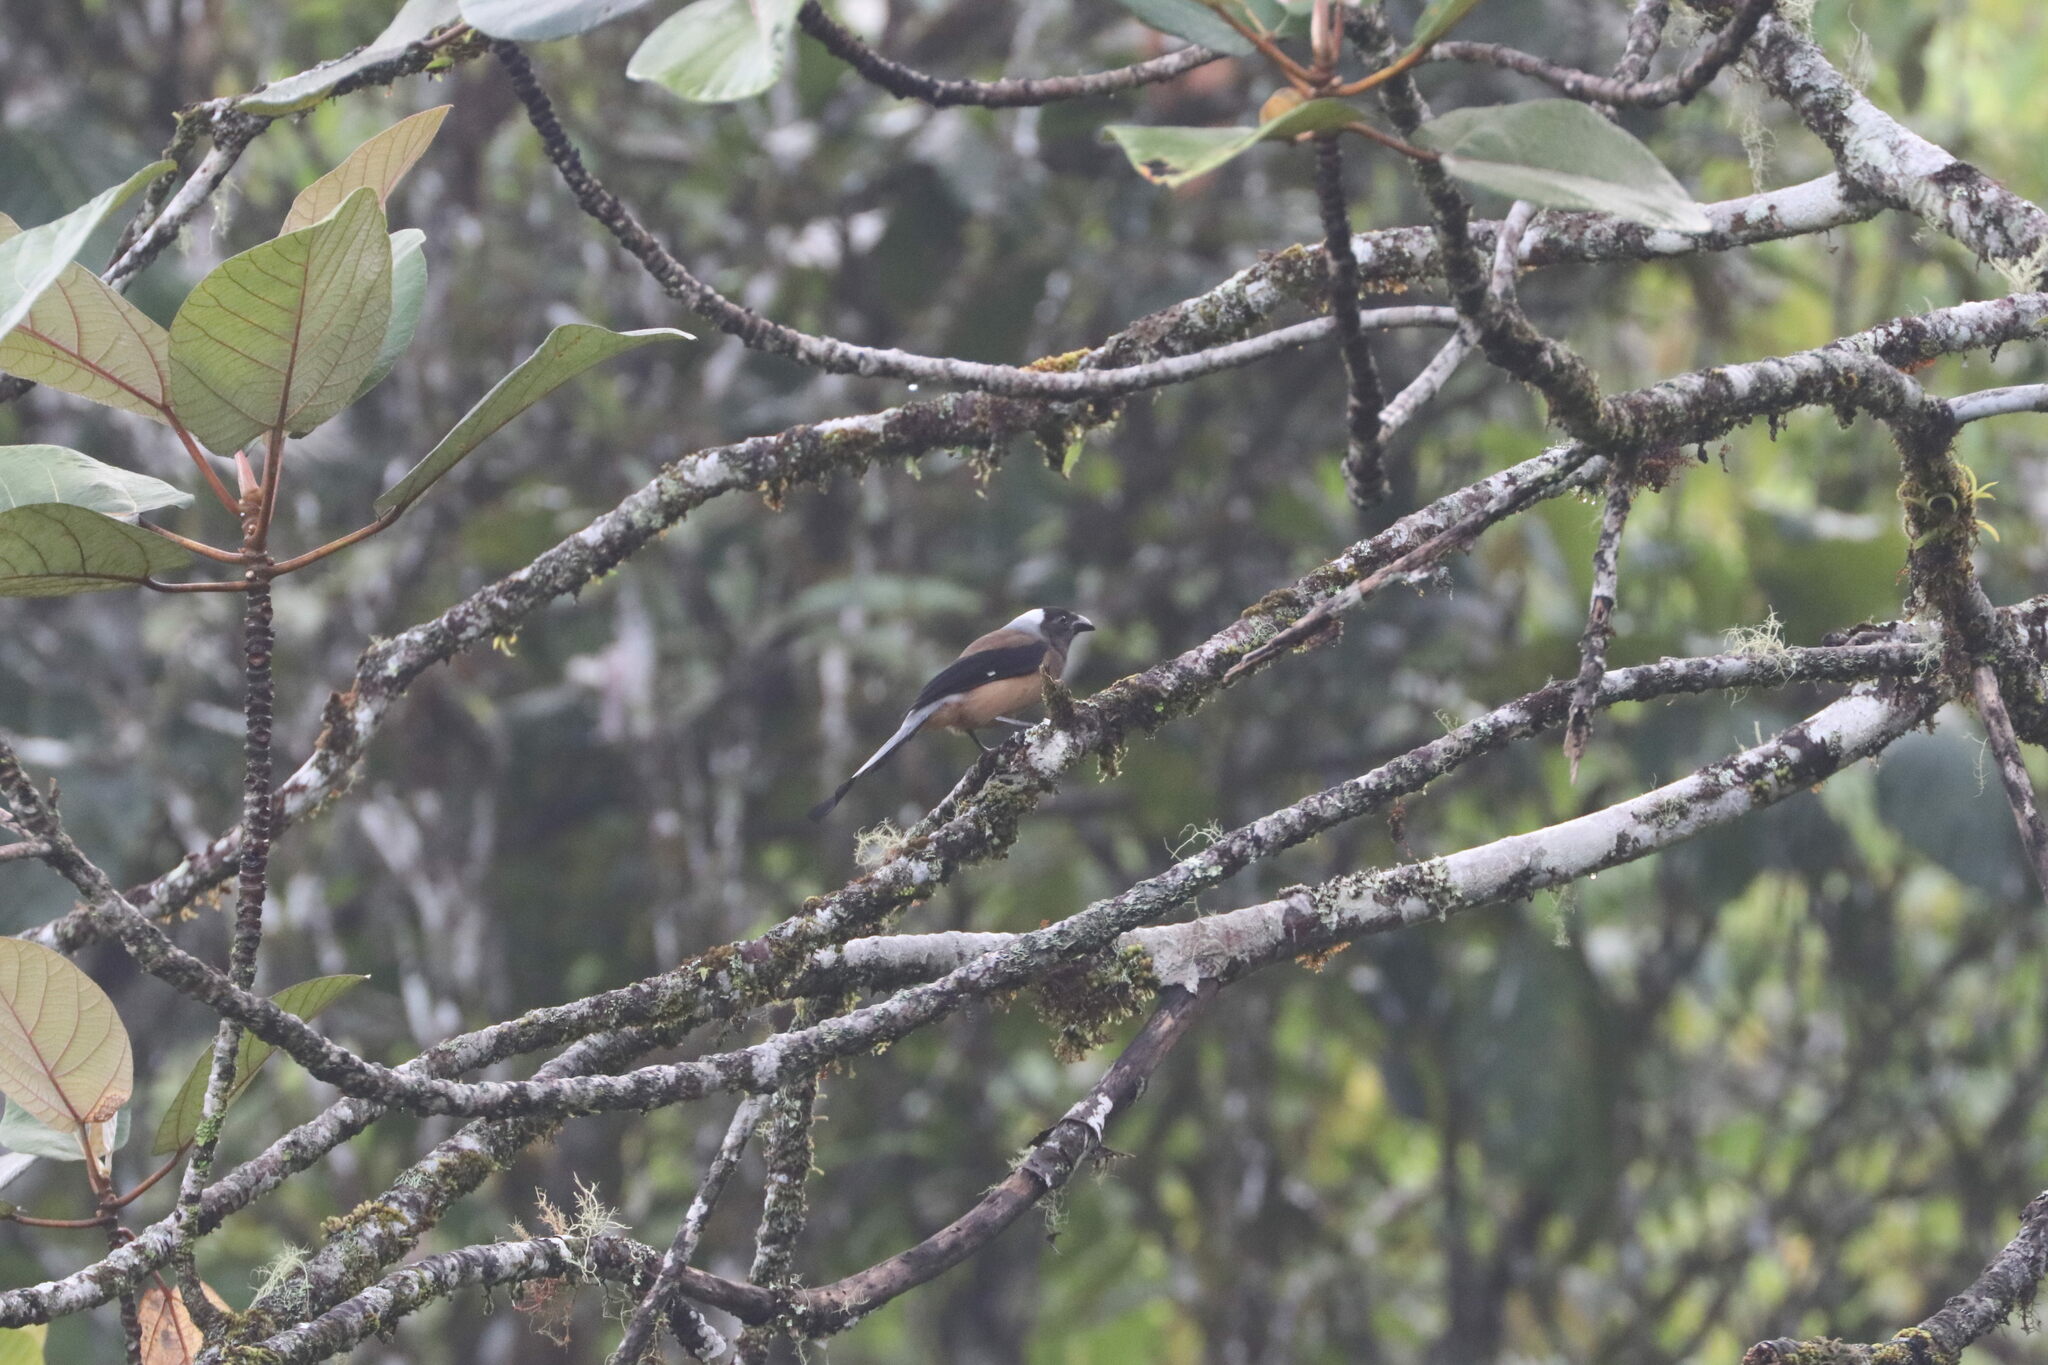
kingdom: Animalia
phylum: Chordata
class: Aves
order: Passeriformes
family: Corvidae
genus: Dendrocitta
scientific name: Dendrocitta occipitalis
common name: Sumatran treepie
